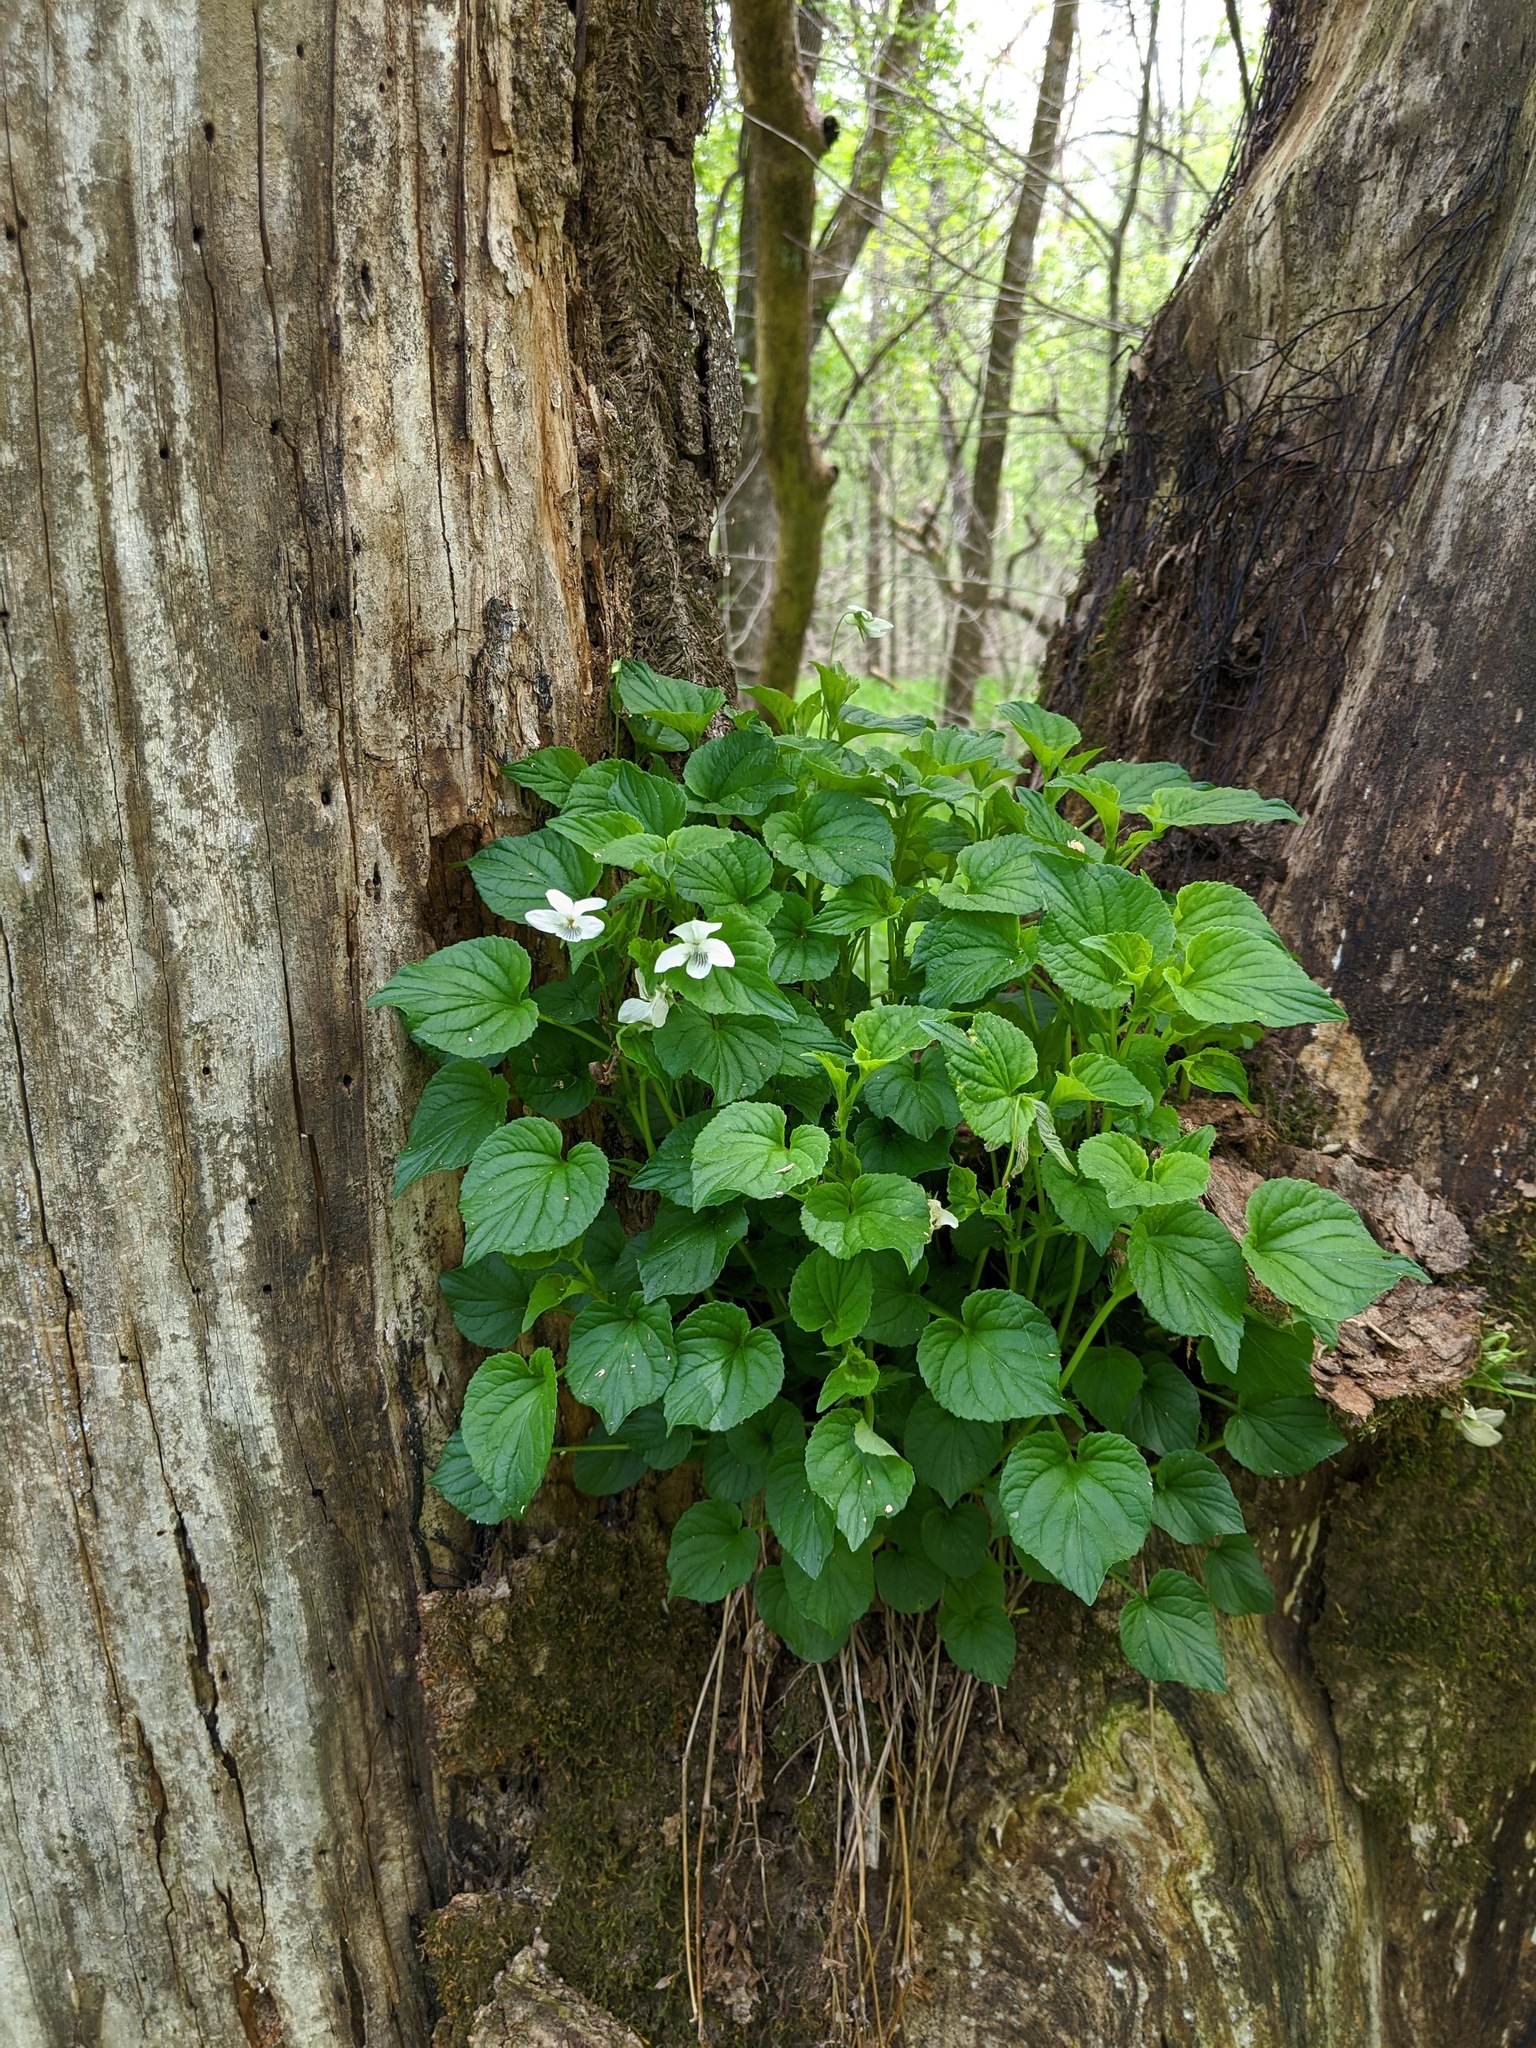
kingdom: Plantae
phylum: Tracheophyta
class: Magnoliopsida
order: Malpighiales
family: Violaceae
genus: Viola
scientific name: Viola striata
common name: Cream violet
